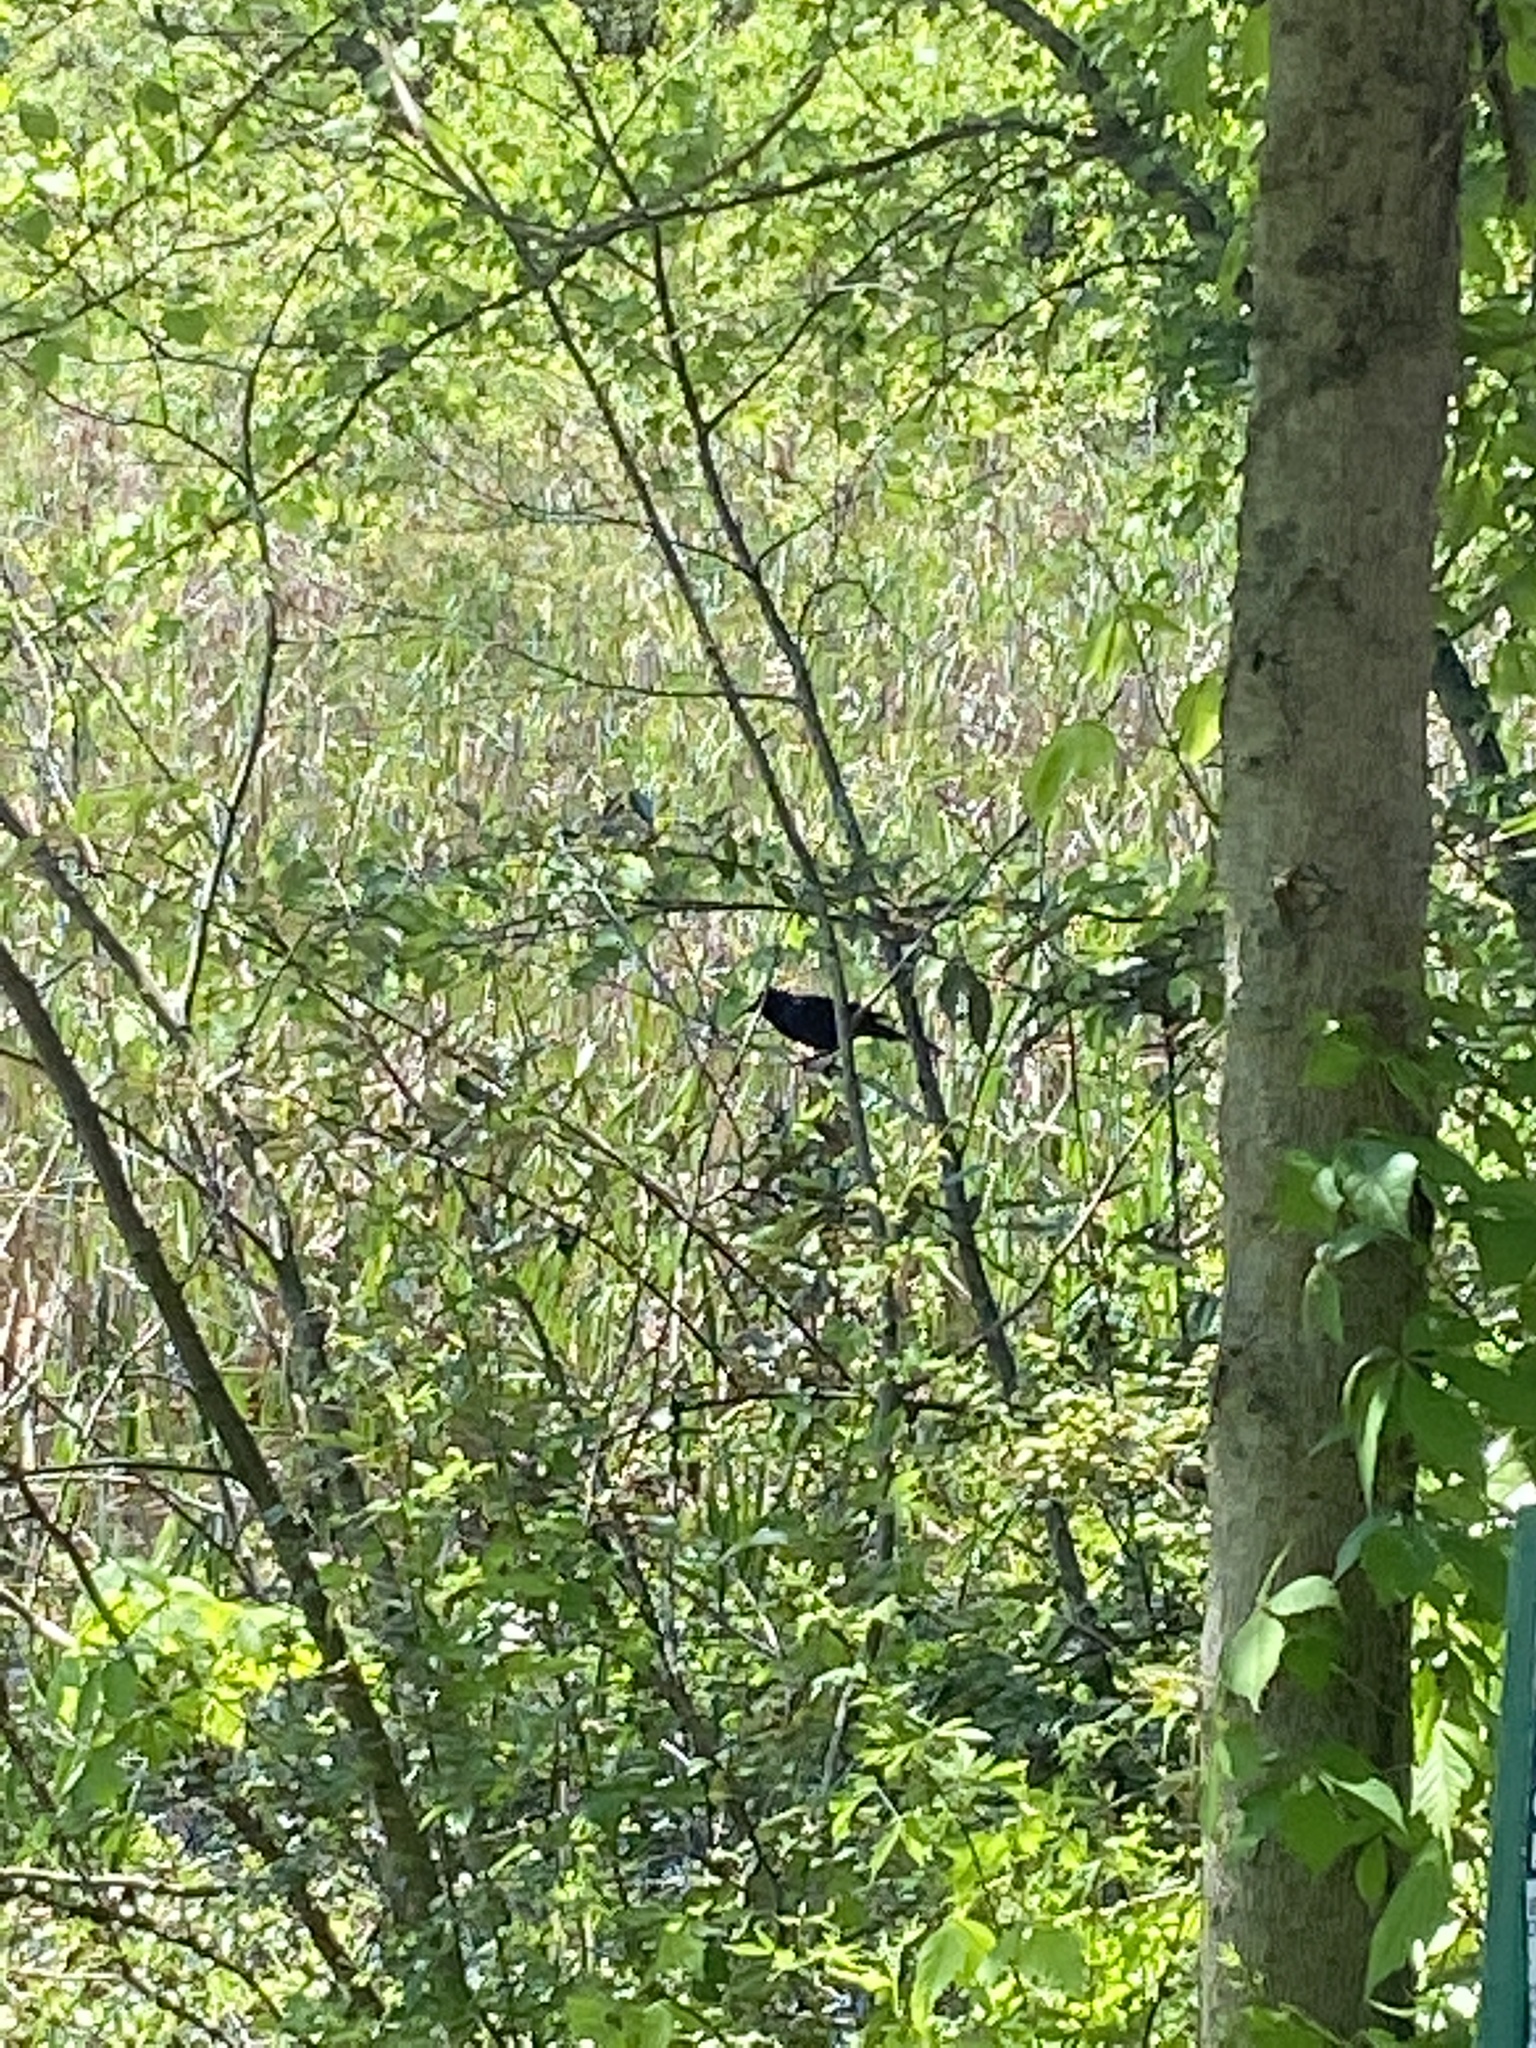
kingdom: Animalia
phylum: Chordata
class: Aves
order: Passeriformes
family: Icteridae
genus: Agelaius
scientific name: Agelaius phoeniceus
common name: Red-winged blackbird
